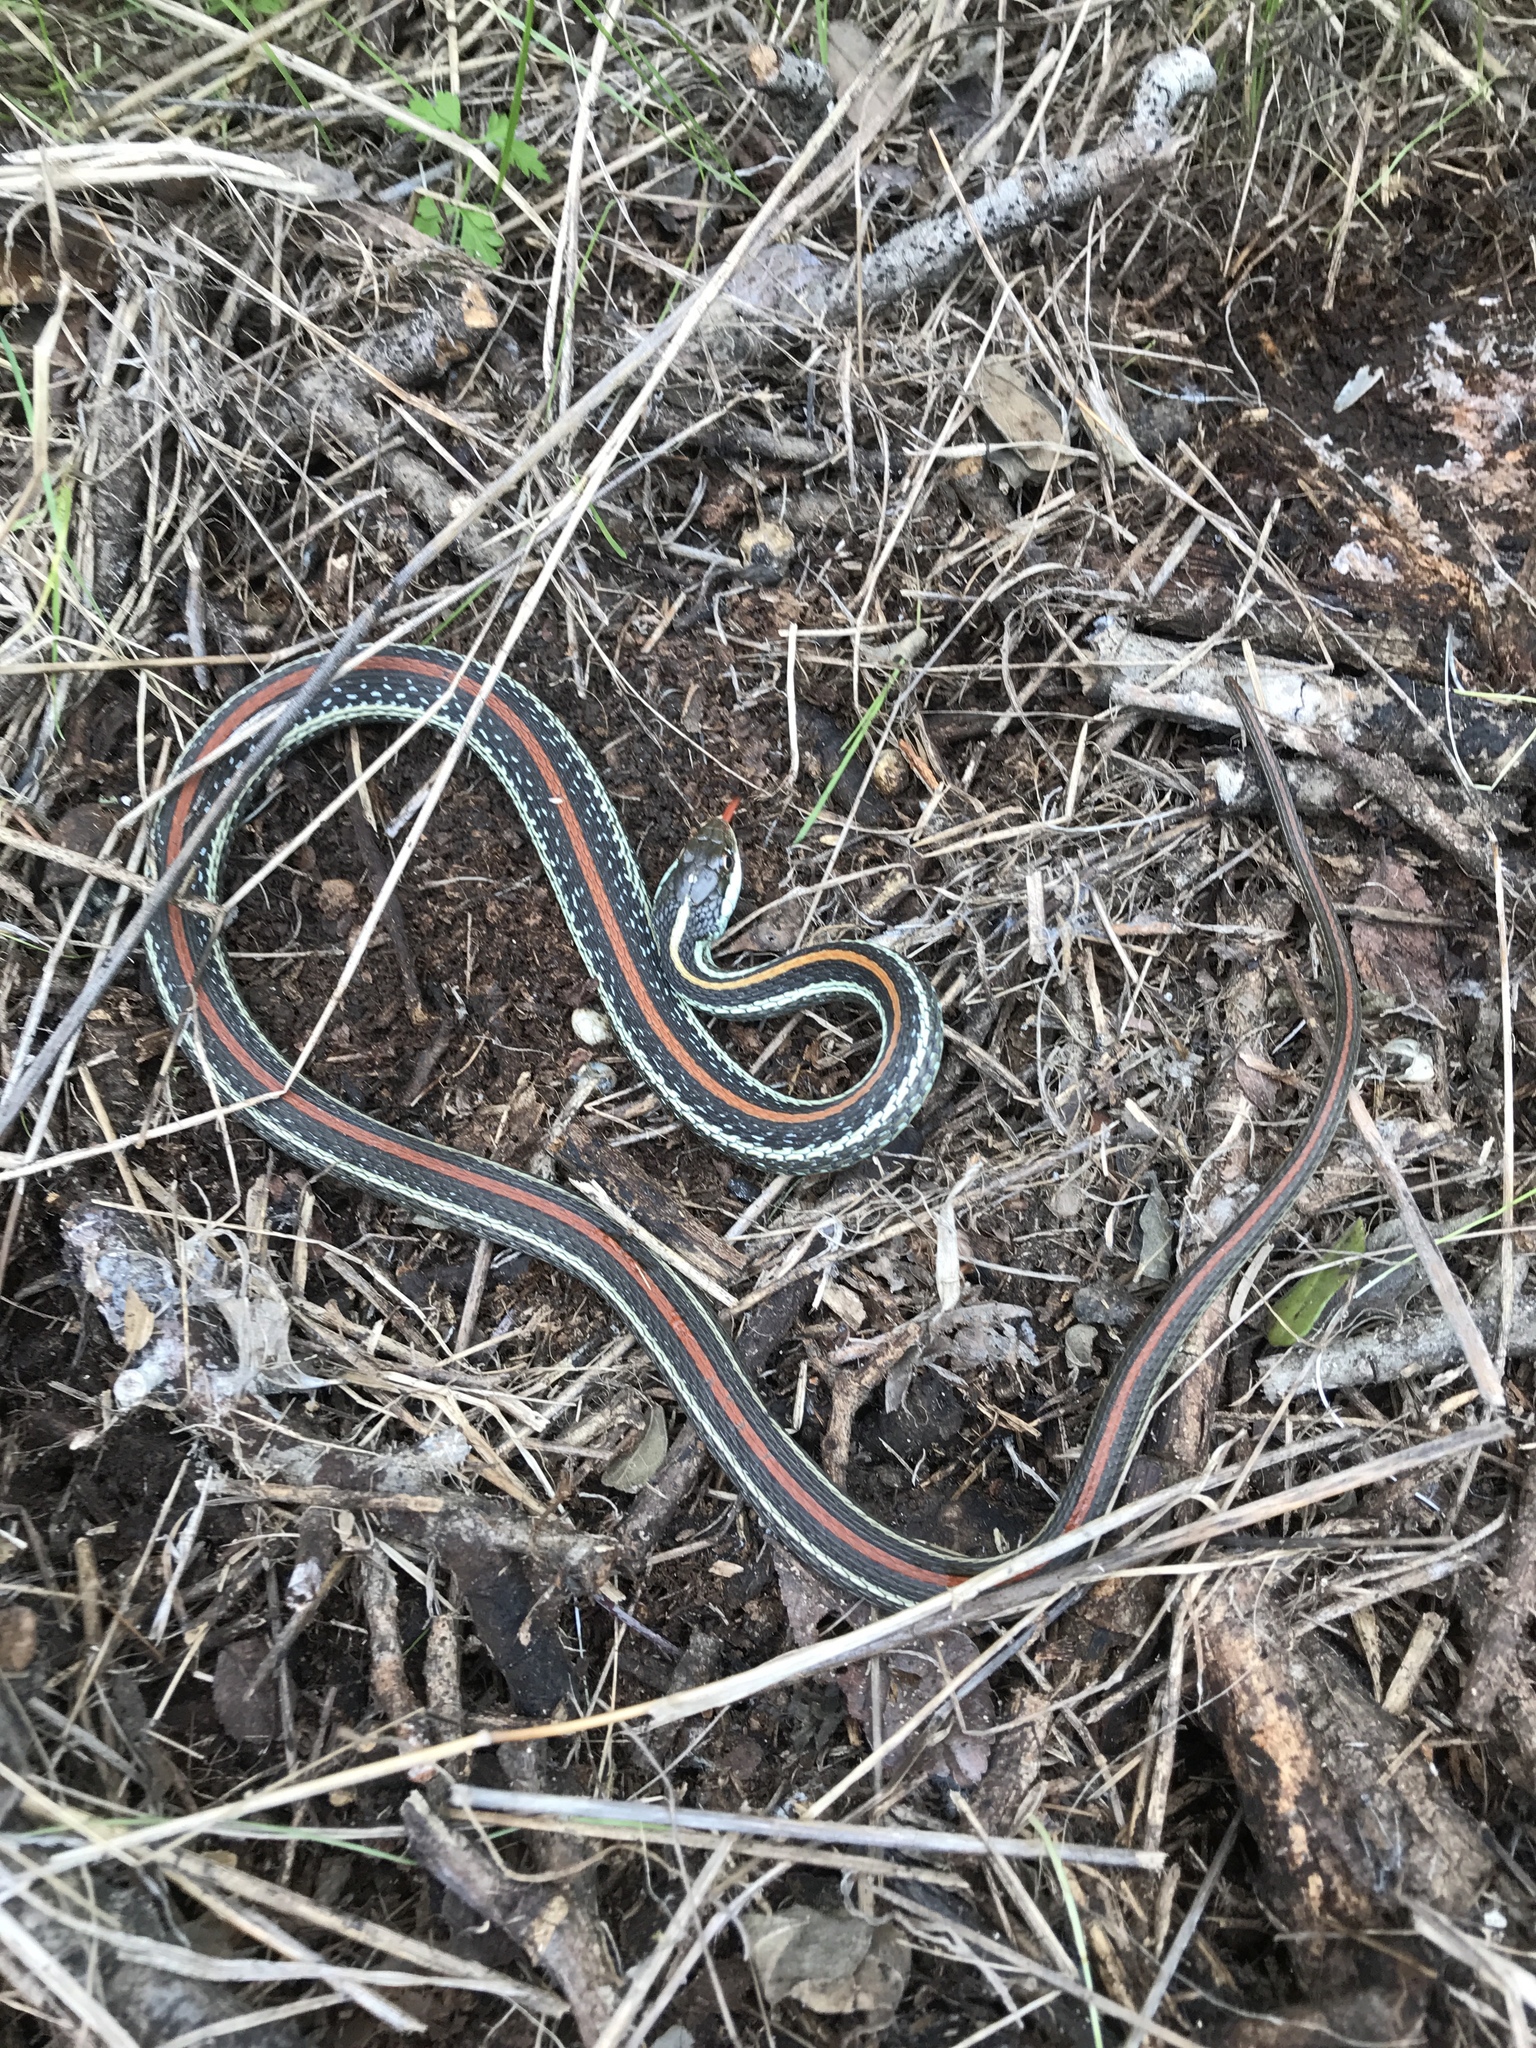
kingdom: Animalia
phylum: Chordata
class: Squamata
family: Colubridae
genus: Thamnophis
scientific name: Thamnophis proximus
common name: Western ribbon snake
